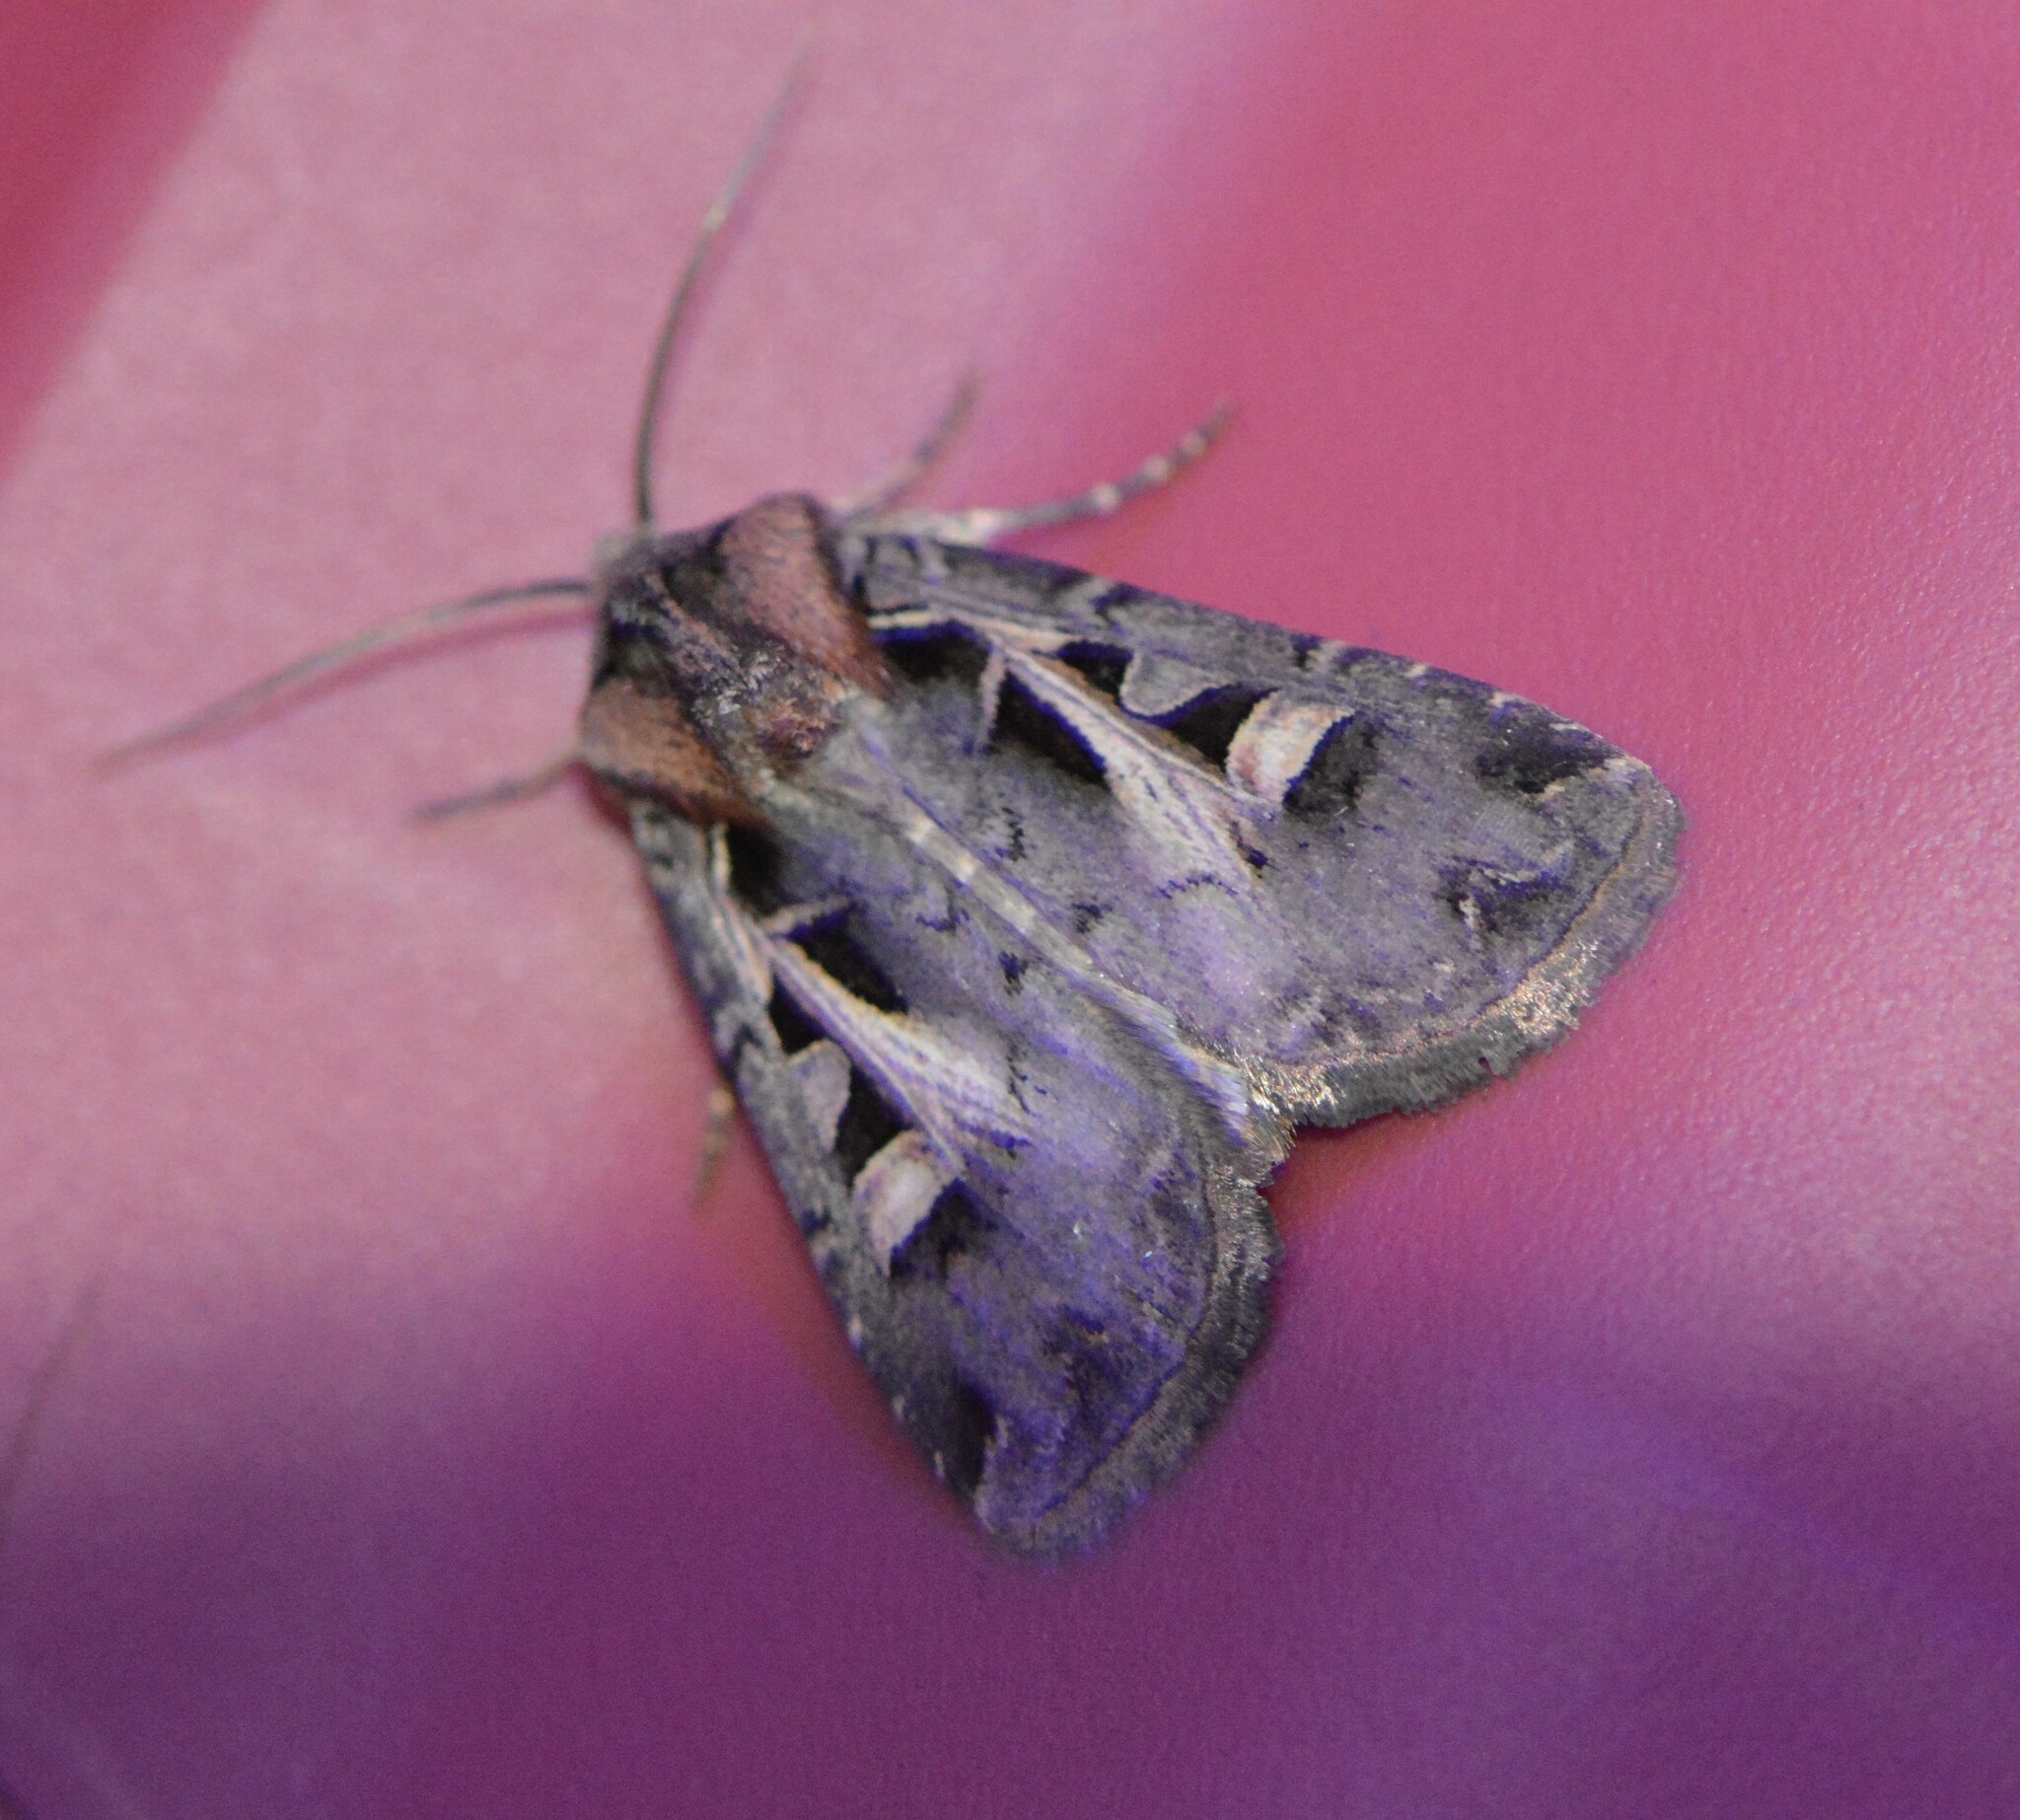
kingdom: Animalia
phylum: Arthropoda
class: Insecta
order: Lepidoptera
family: Noctuidae
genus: Feltia
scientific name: Feltia herilis
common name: Master's dart
